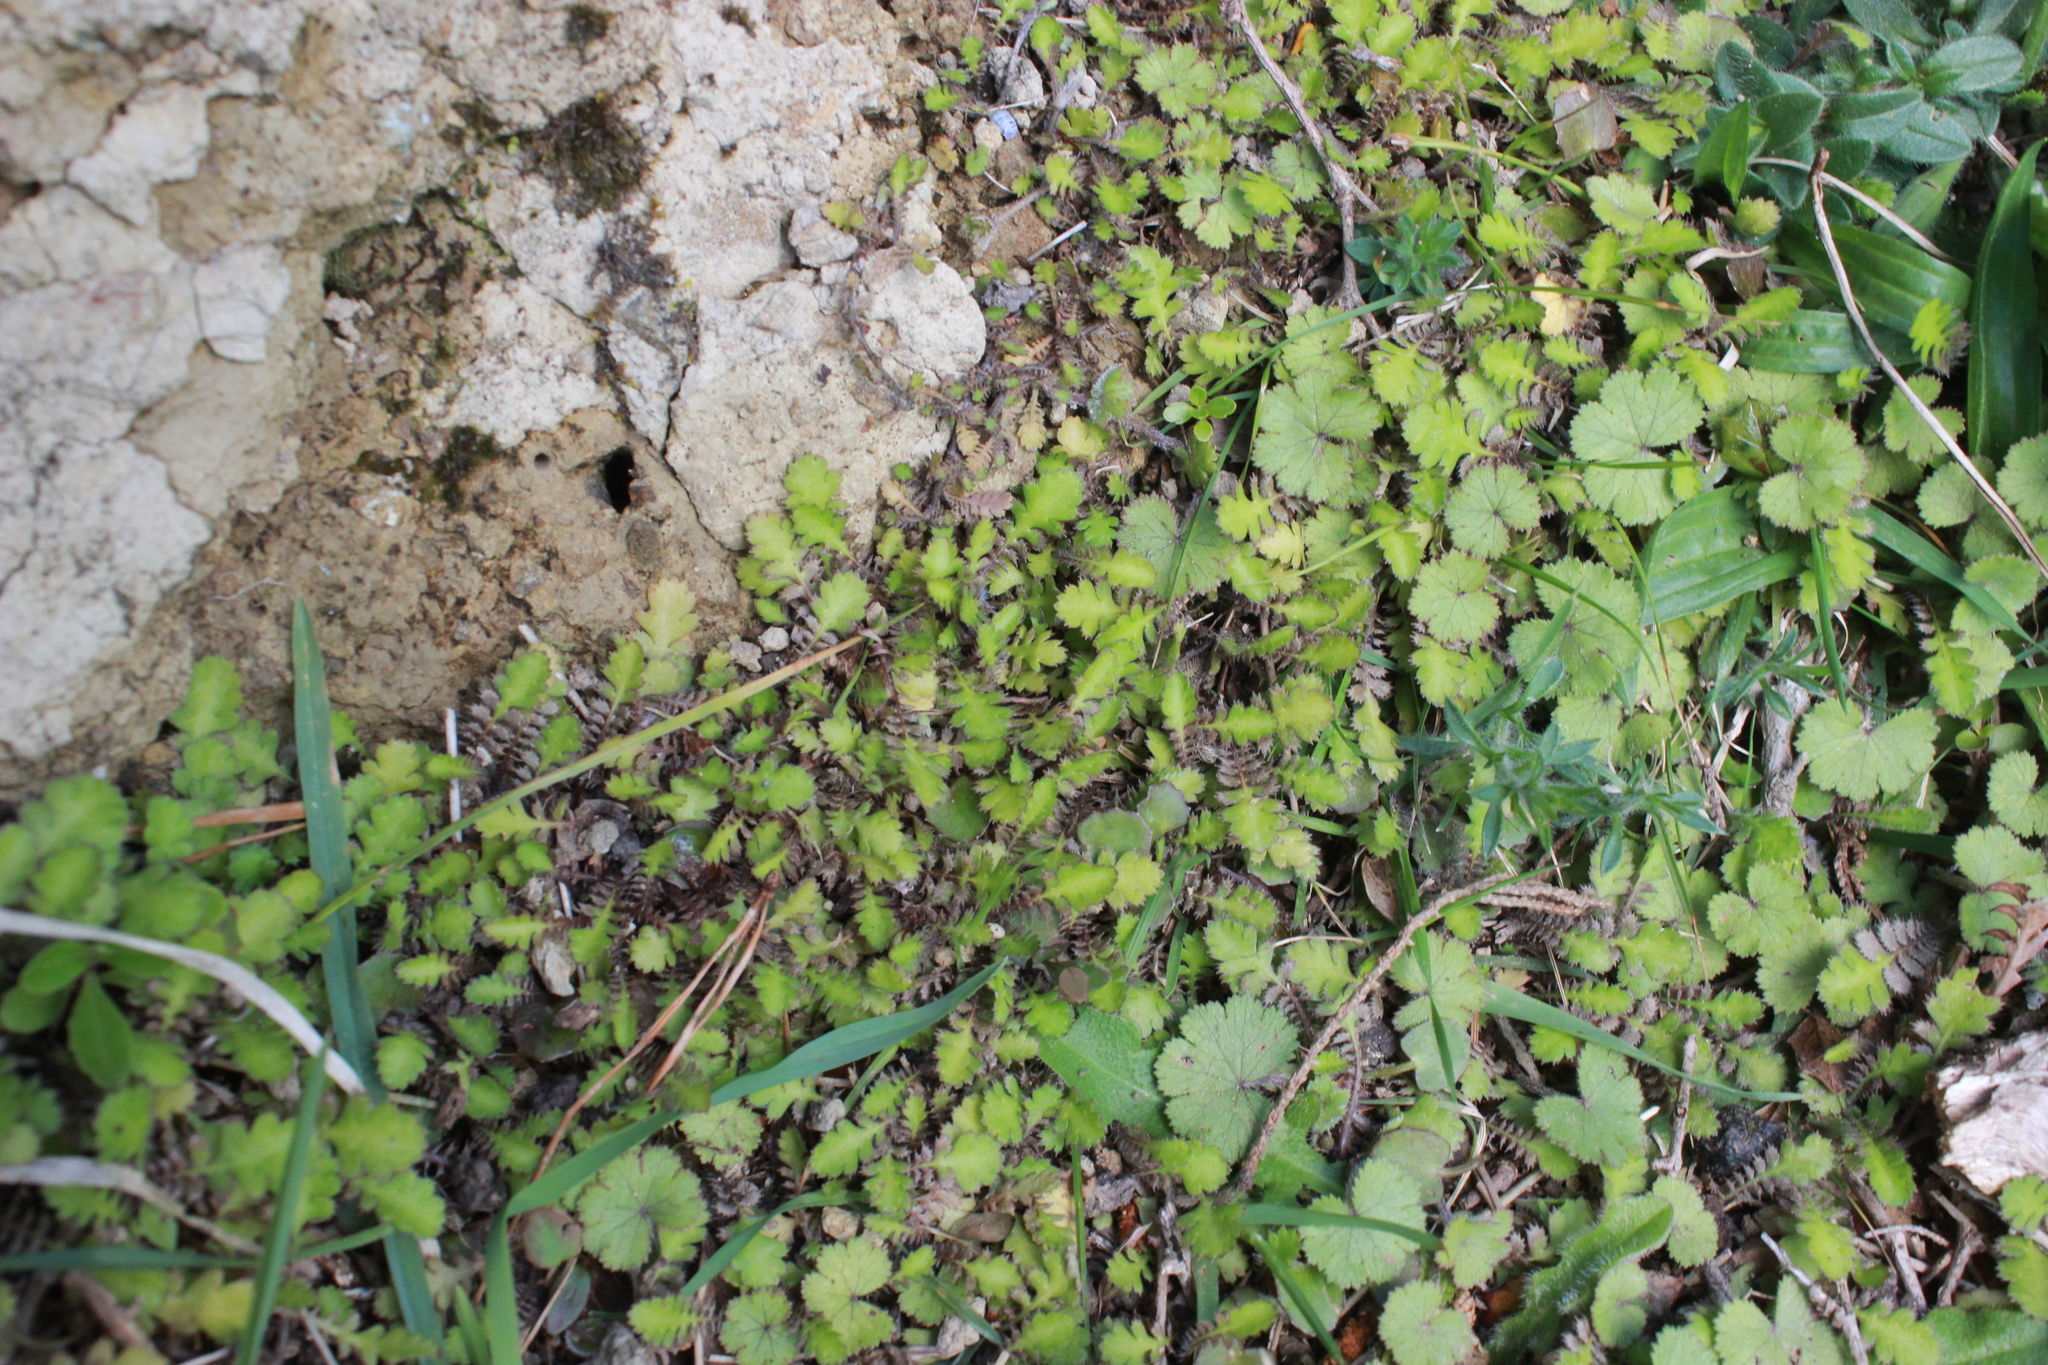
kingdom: Plantae
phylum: Tracheophyta
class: Magnoliopsida
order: Apiales
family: Araliaceae
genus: Hydrocotyle
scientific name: Hydrocotyle moschata
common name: Hairy pennywort
